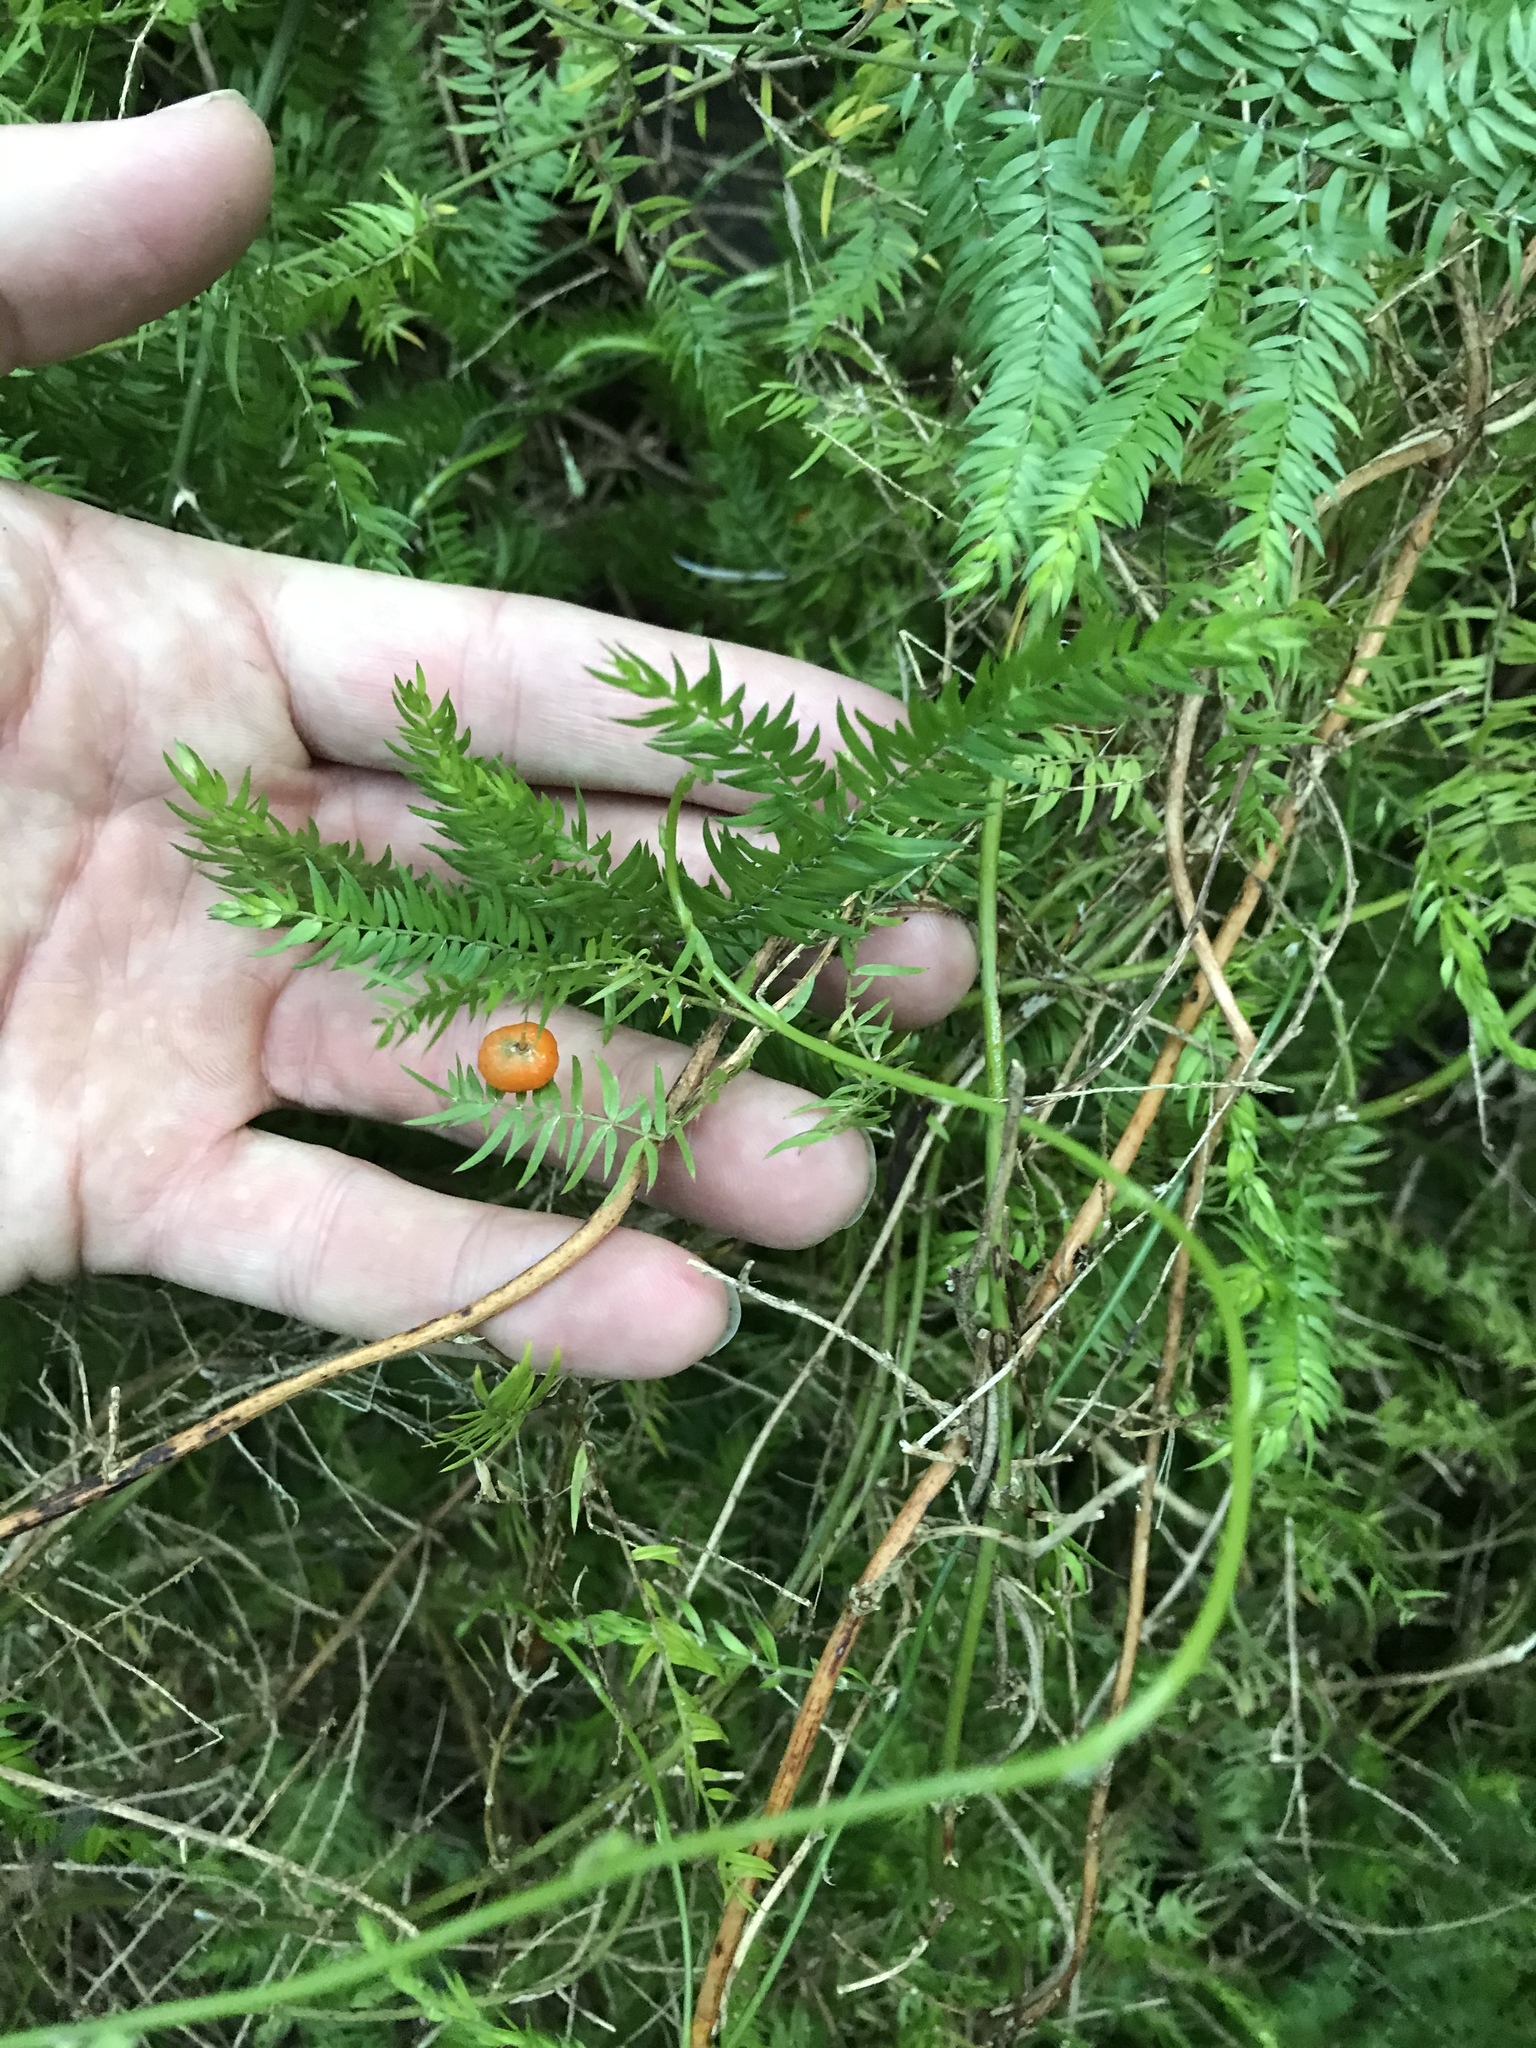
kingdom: Plantae
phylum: Tracheophyta
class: Liliopsida
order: Asparagales
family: Asparagaceae
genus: Asparagus
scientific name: Asparagus scandens
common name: Asparagus-fern
